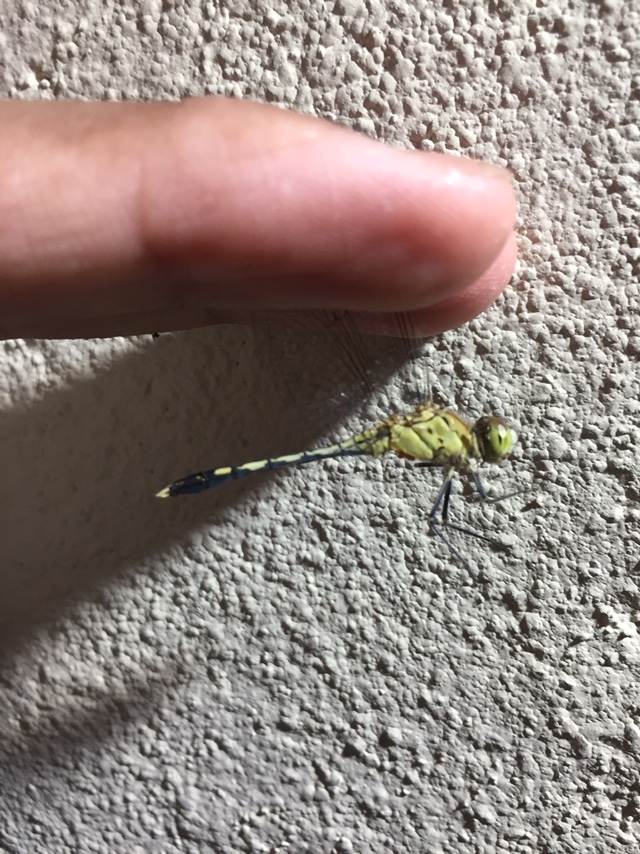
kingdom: Animalia
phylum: Arthropoda
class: Insecta
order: Odonata
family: Libellulidae
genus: Diplacodes
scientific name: Diplacodes trivialis
